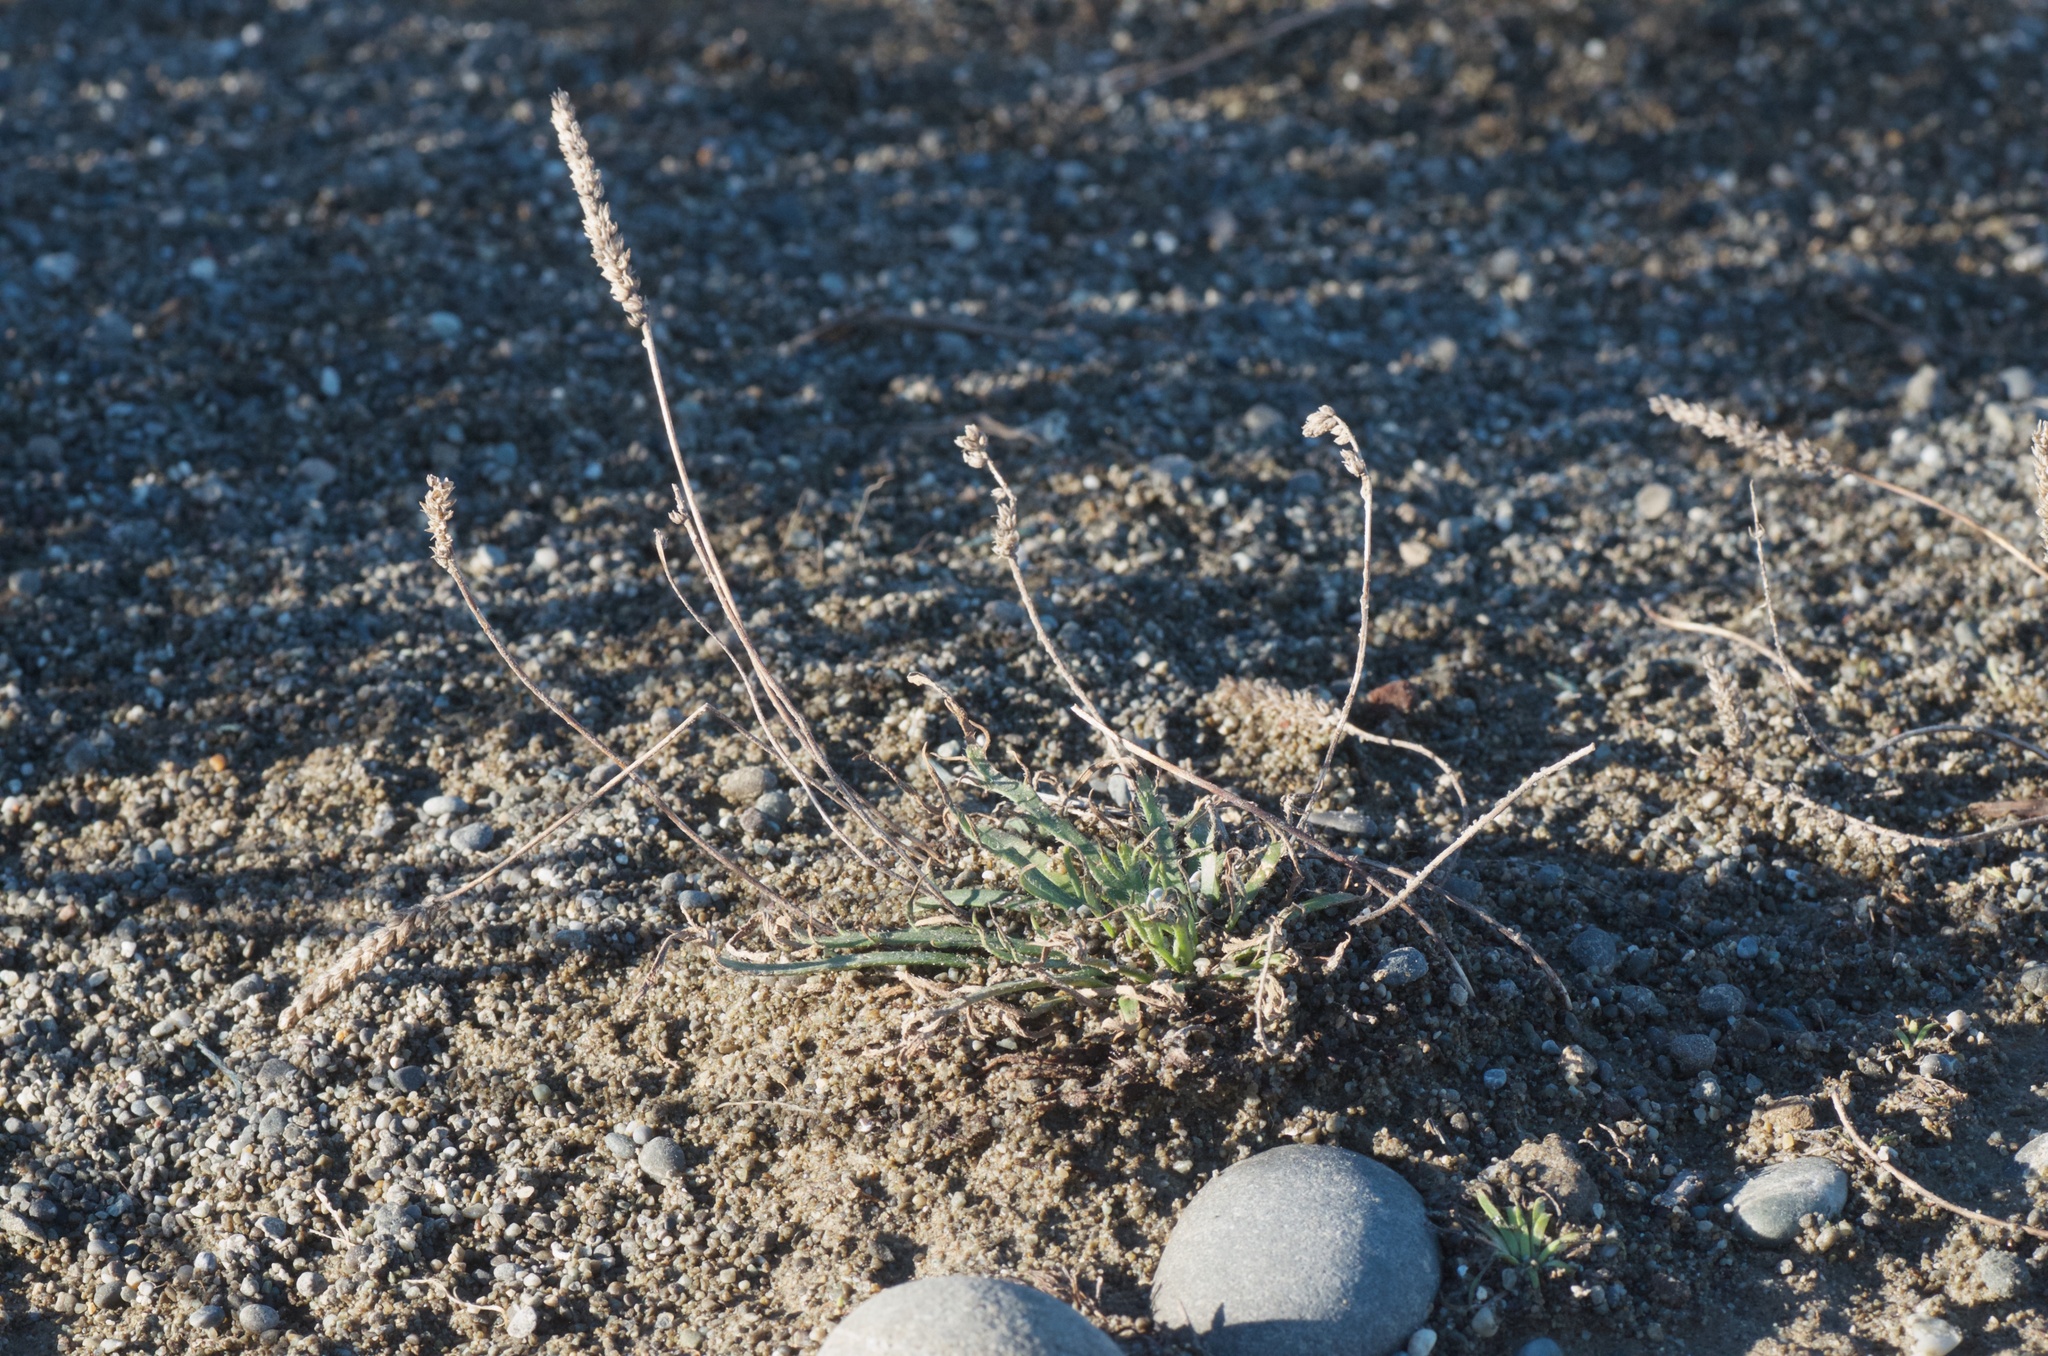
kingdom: Plantae
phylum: Tracheophyta
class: Magnoliopsida
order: Lamiales
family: Plantaginaceae
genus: Plantago
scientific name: Plantago coronopus
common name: Buck's-horn plantain
